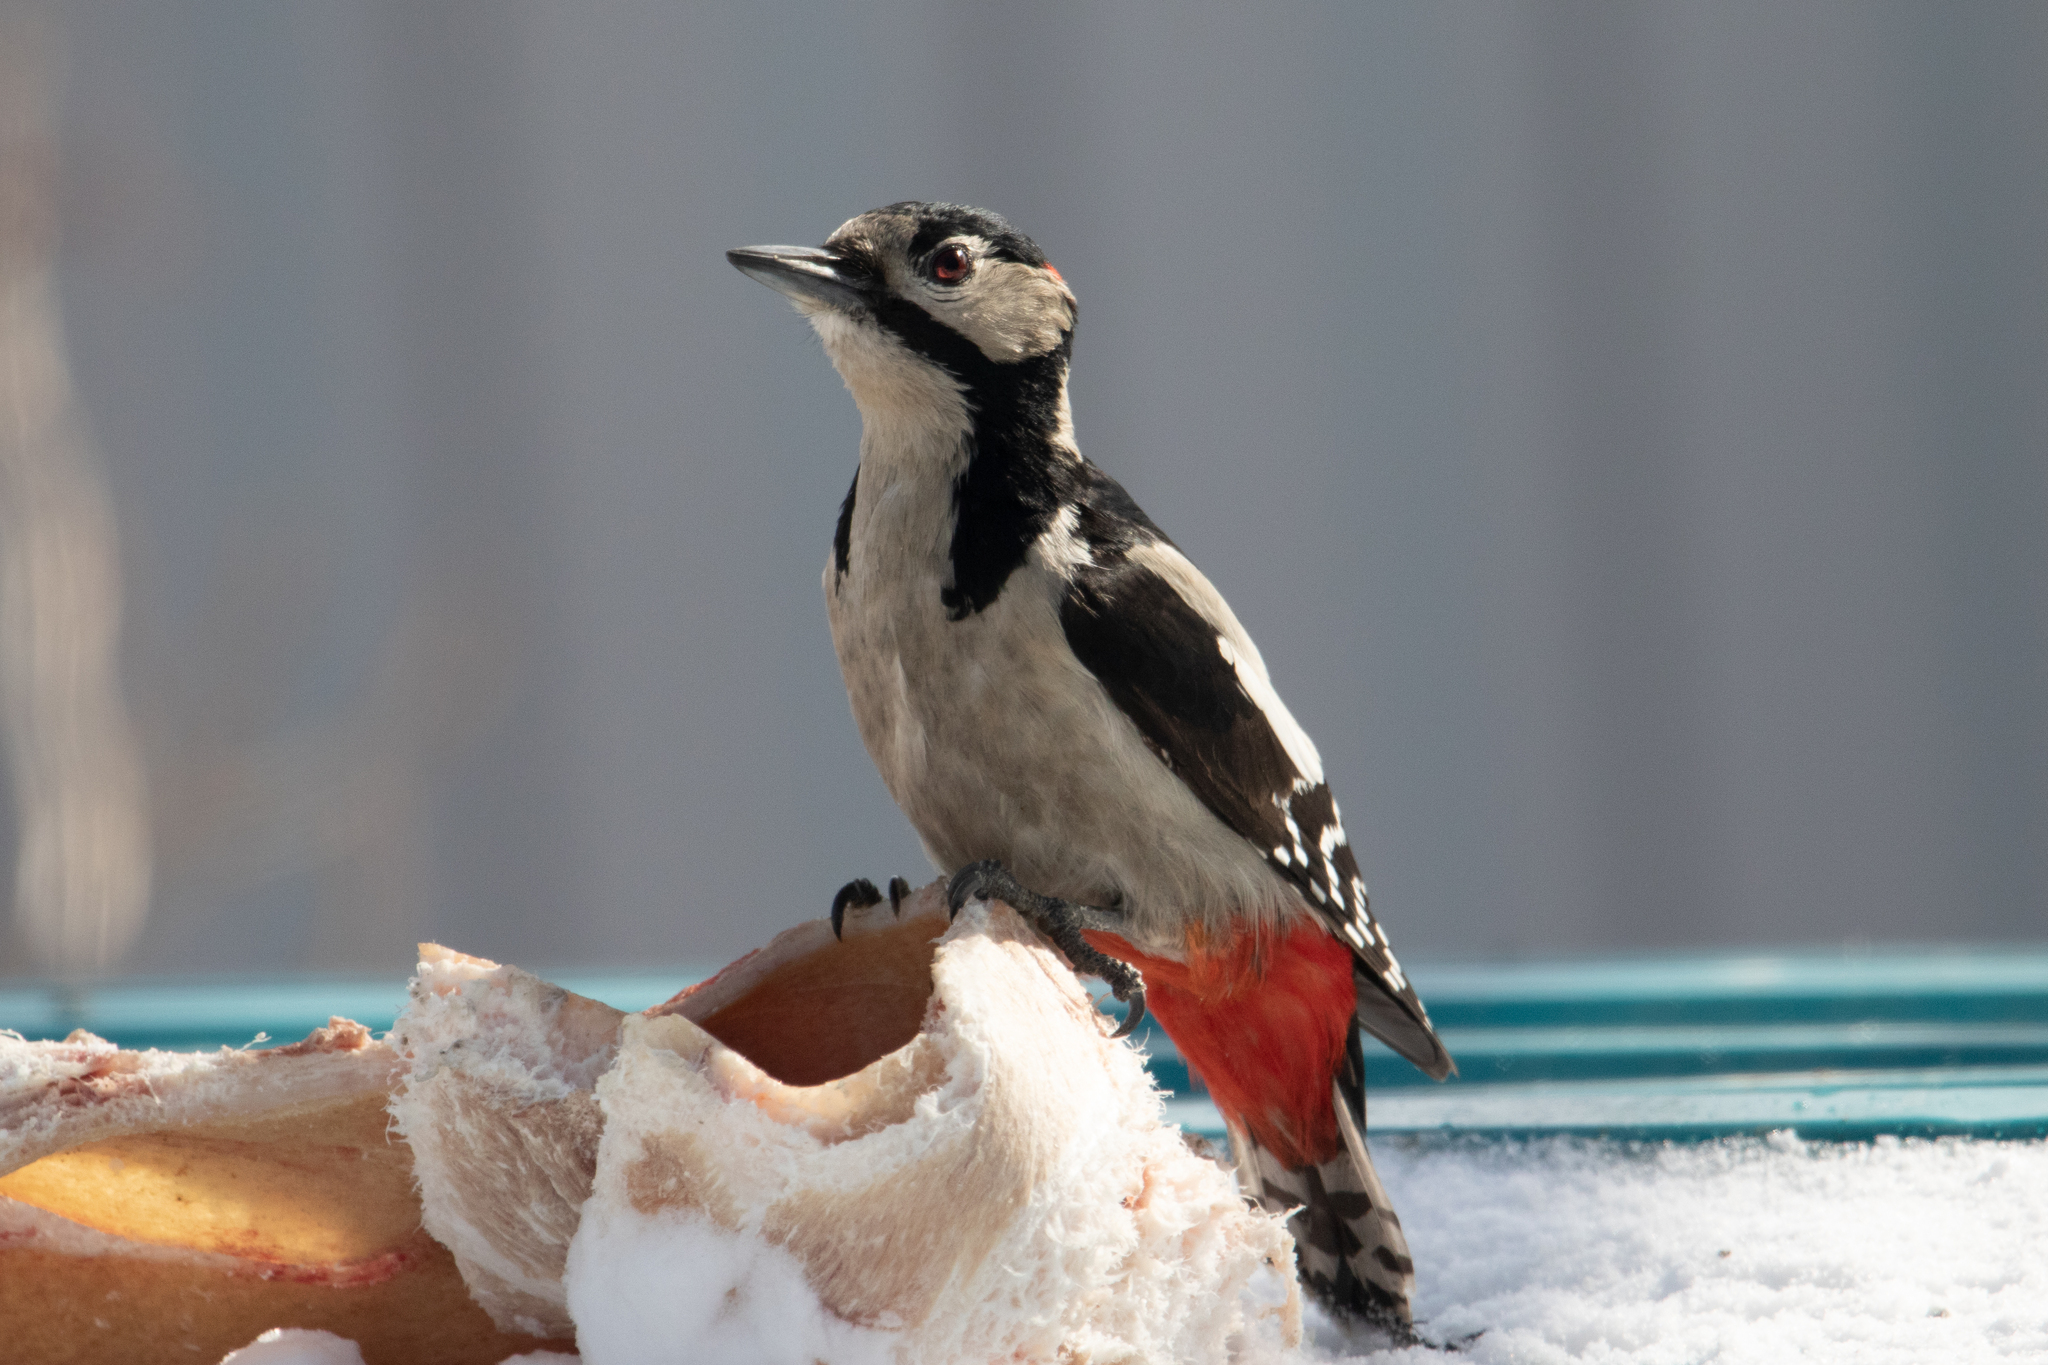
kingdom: Animalia
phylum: Chordata
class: Aves
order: Piciformes
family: Picidae
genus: Dendrocopos
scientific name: Dendrocopos major
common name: Great spotted woodpecker
